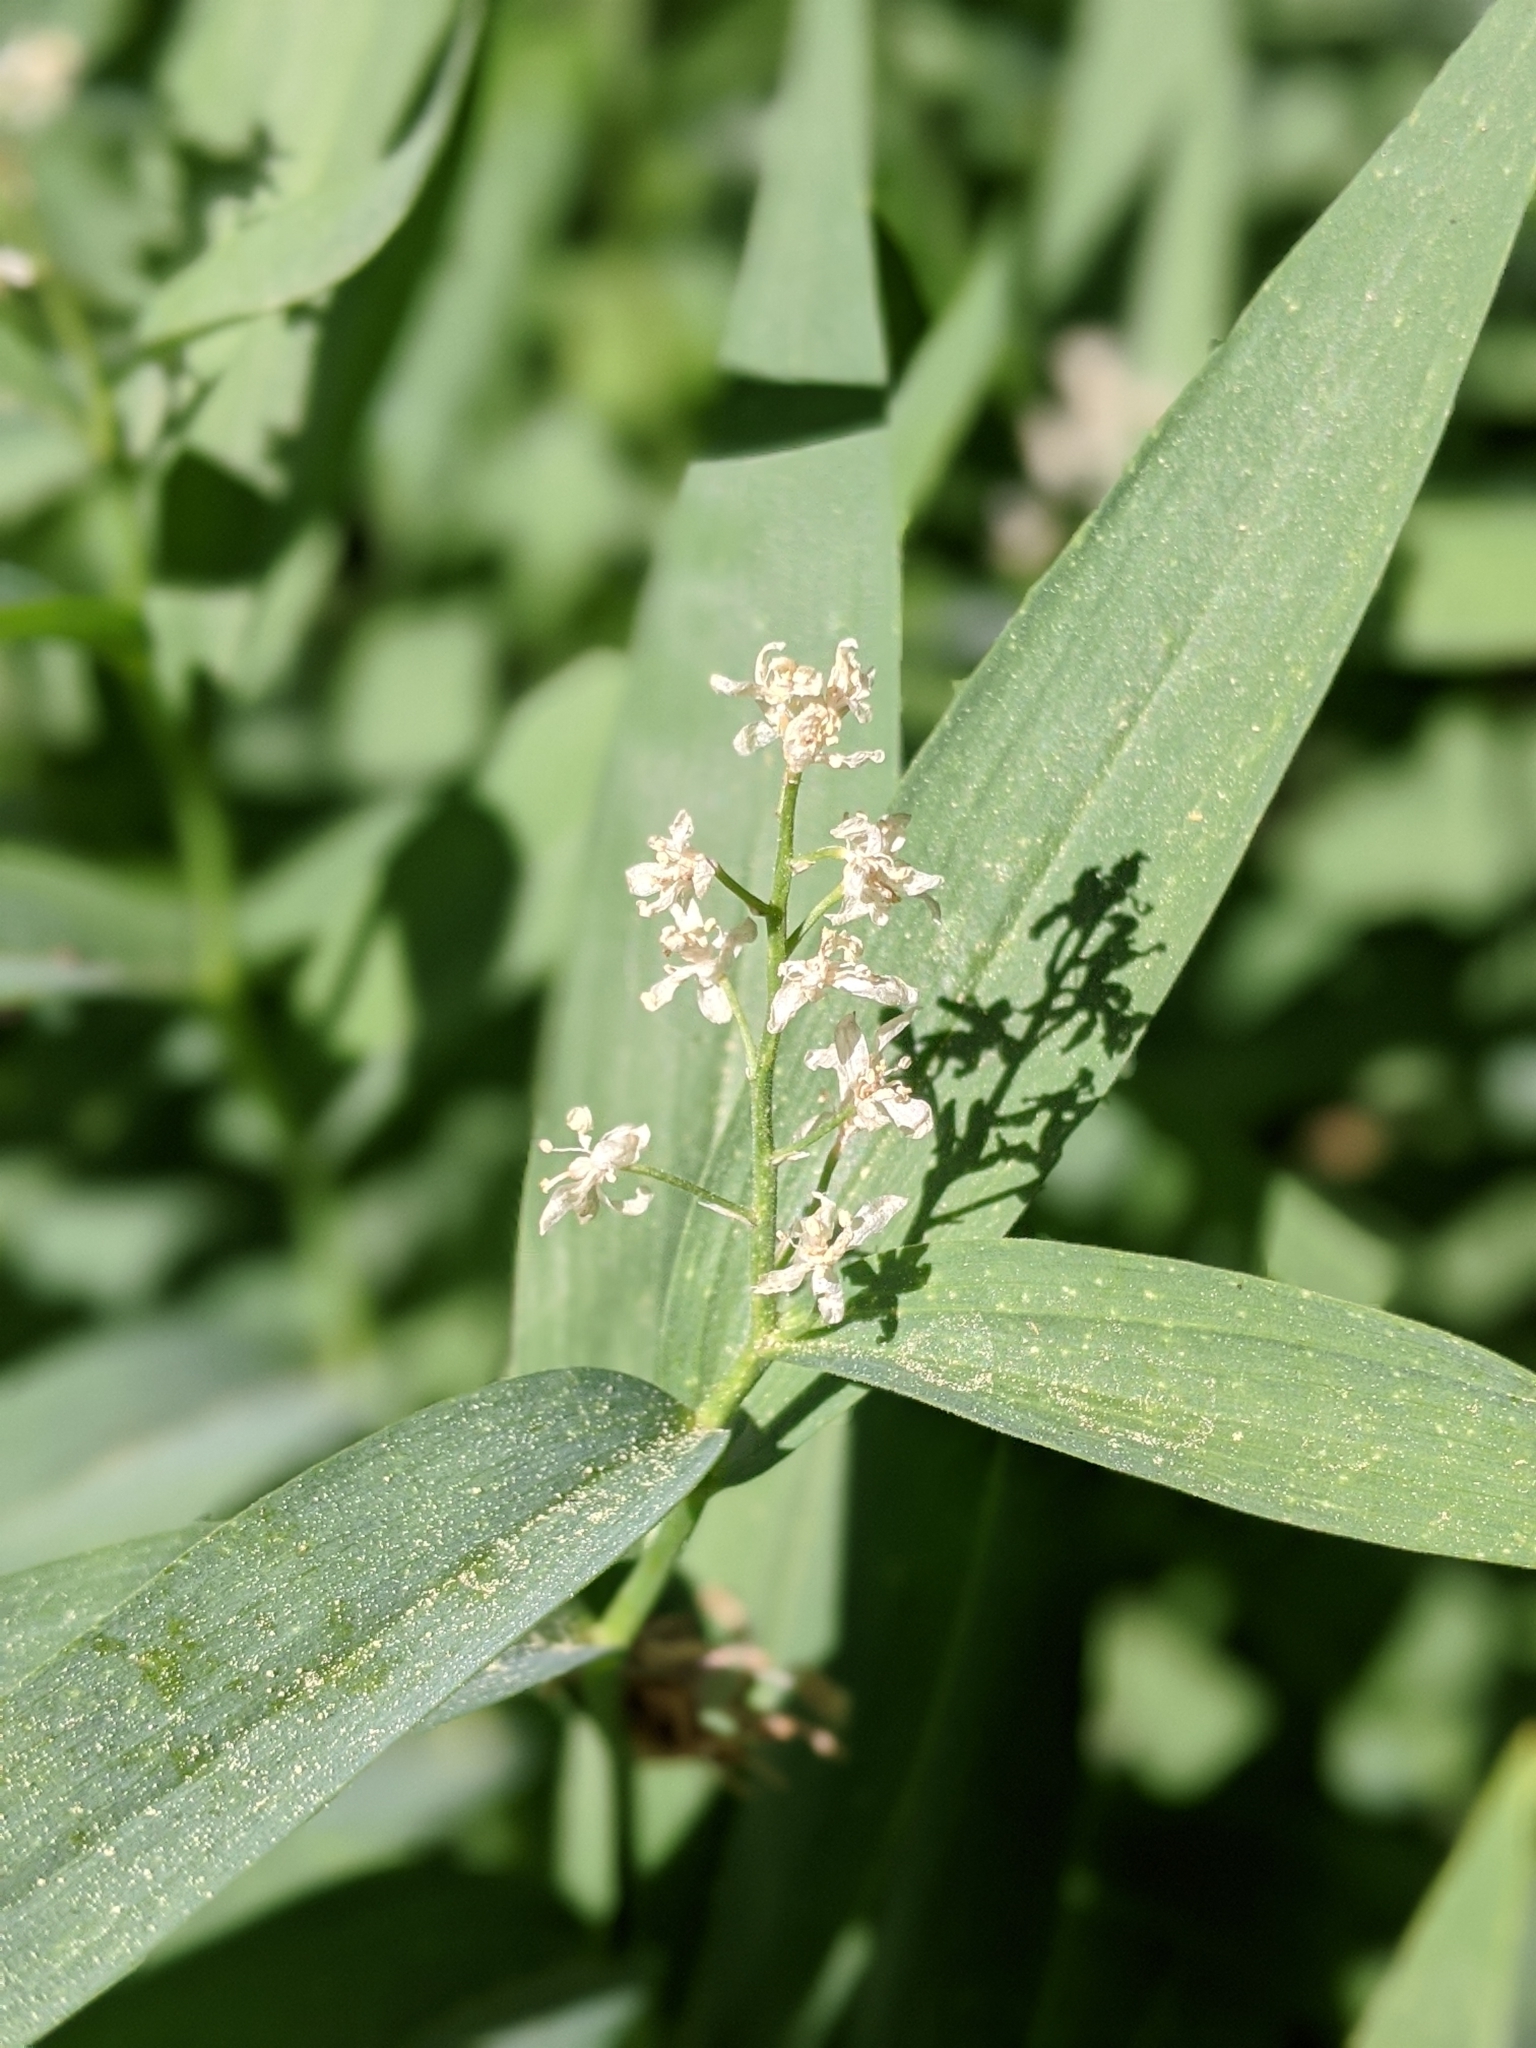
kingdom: Plantae
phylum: Tracheophyta
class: Liliopsida
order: Asparagales
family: Asparagaceae
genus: Maianthemum
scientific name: Maianthemum stellatum
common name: Little false solomon's seal
